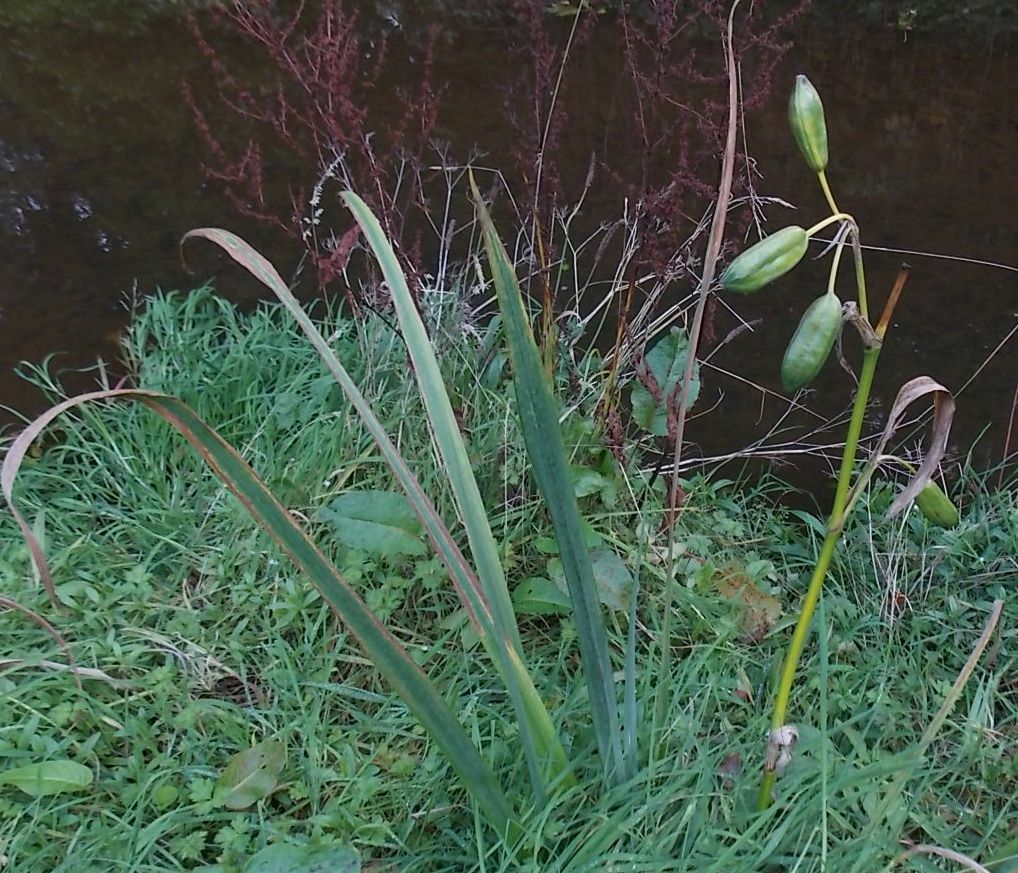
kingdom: Plantae
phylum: Tracheophyta
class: Liliopsida
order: Asparagales
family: Iridaceae
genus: Iris
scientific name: Iris pseudacorus
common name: Yellow flag
